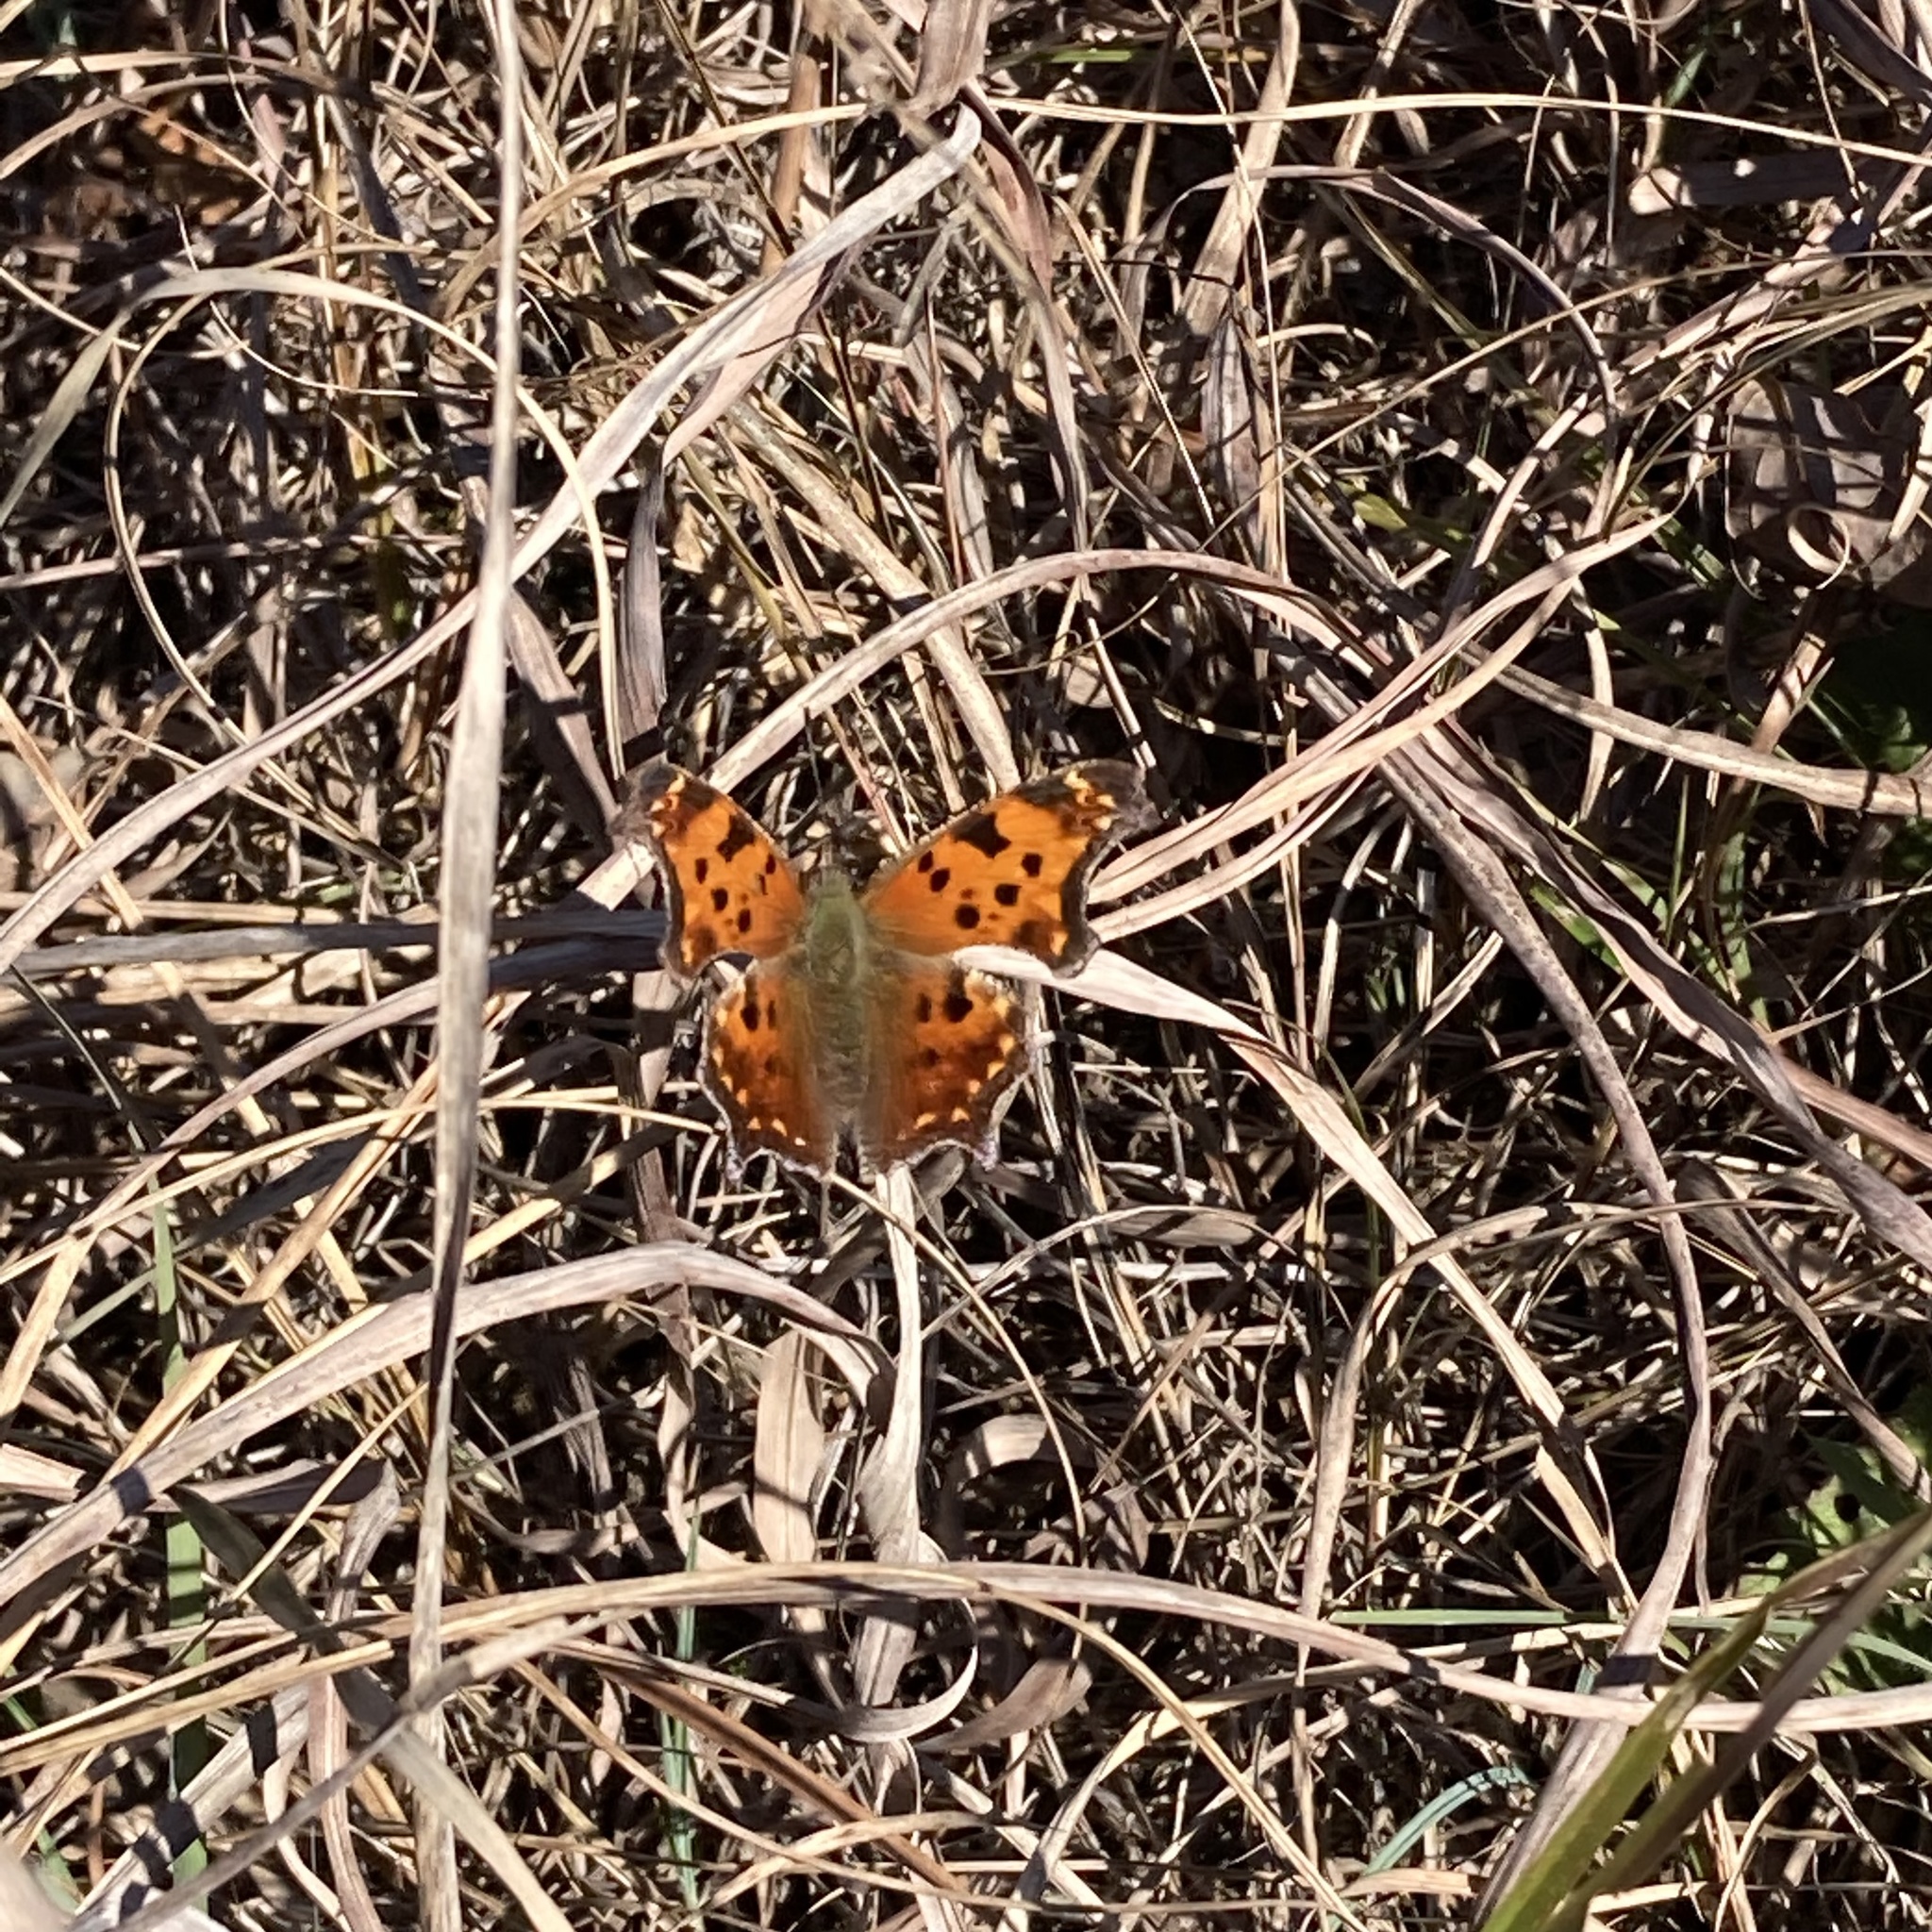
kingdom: Animalia
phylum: Arthropoda
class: Insecta
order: Lepidoptera
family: Nymphalidae
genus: Polygonia
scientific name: Polygonia comma
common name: Eastern comma
